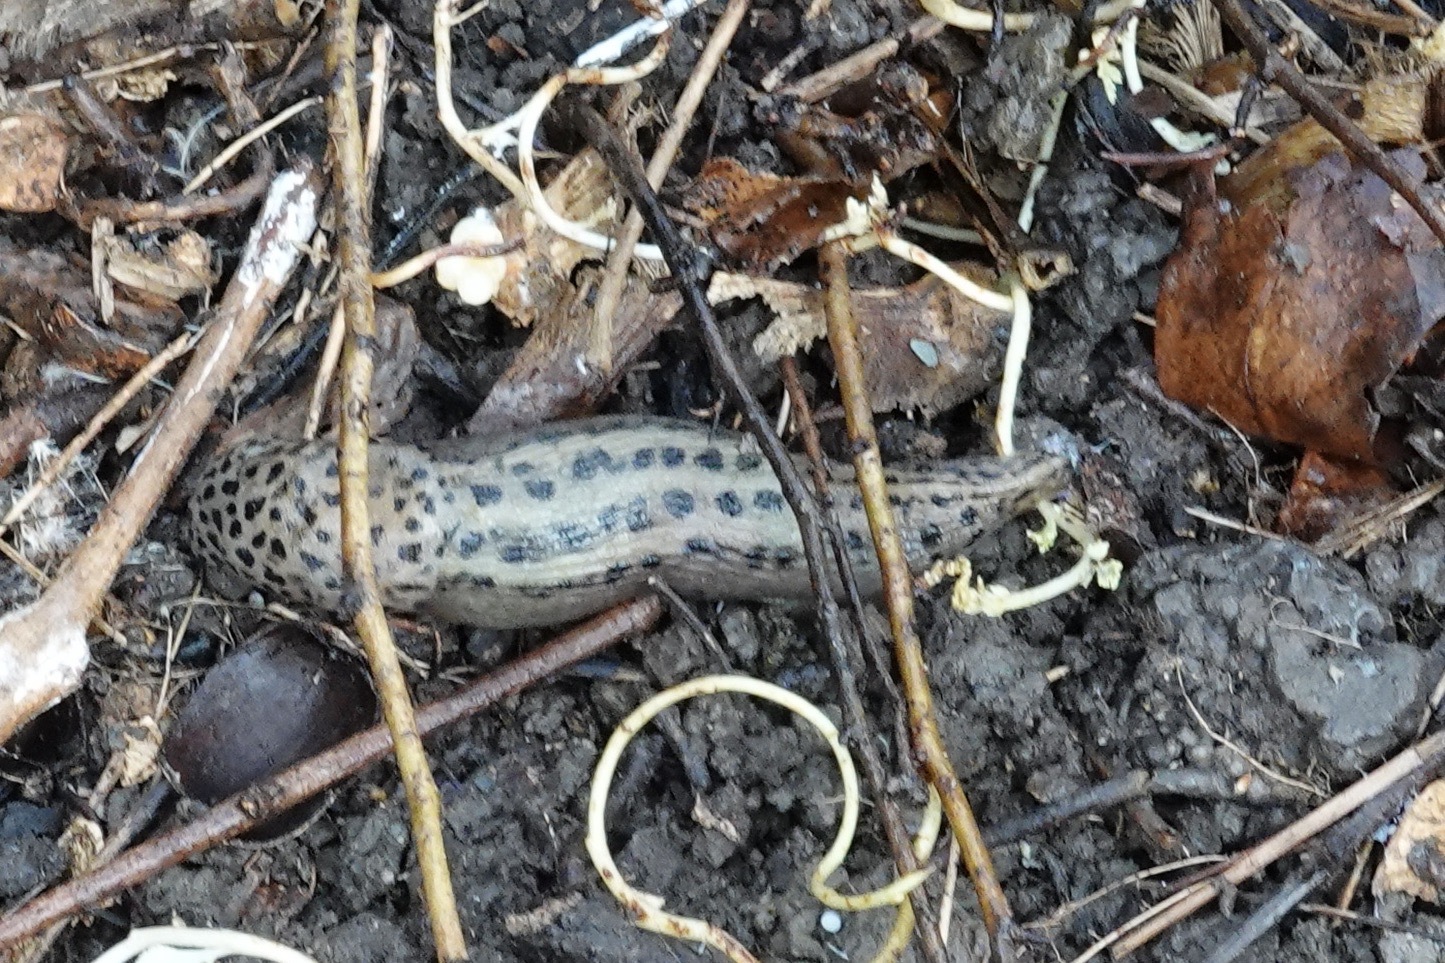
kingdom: Animalia
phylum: Mollusca
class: Gastropoda
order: Stylommatophora
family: Limacidae
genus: Limax
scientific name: Limax maximus
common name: Great grey slug
